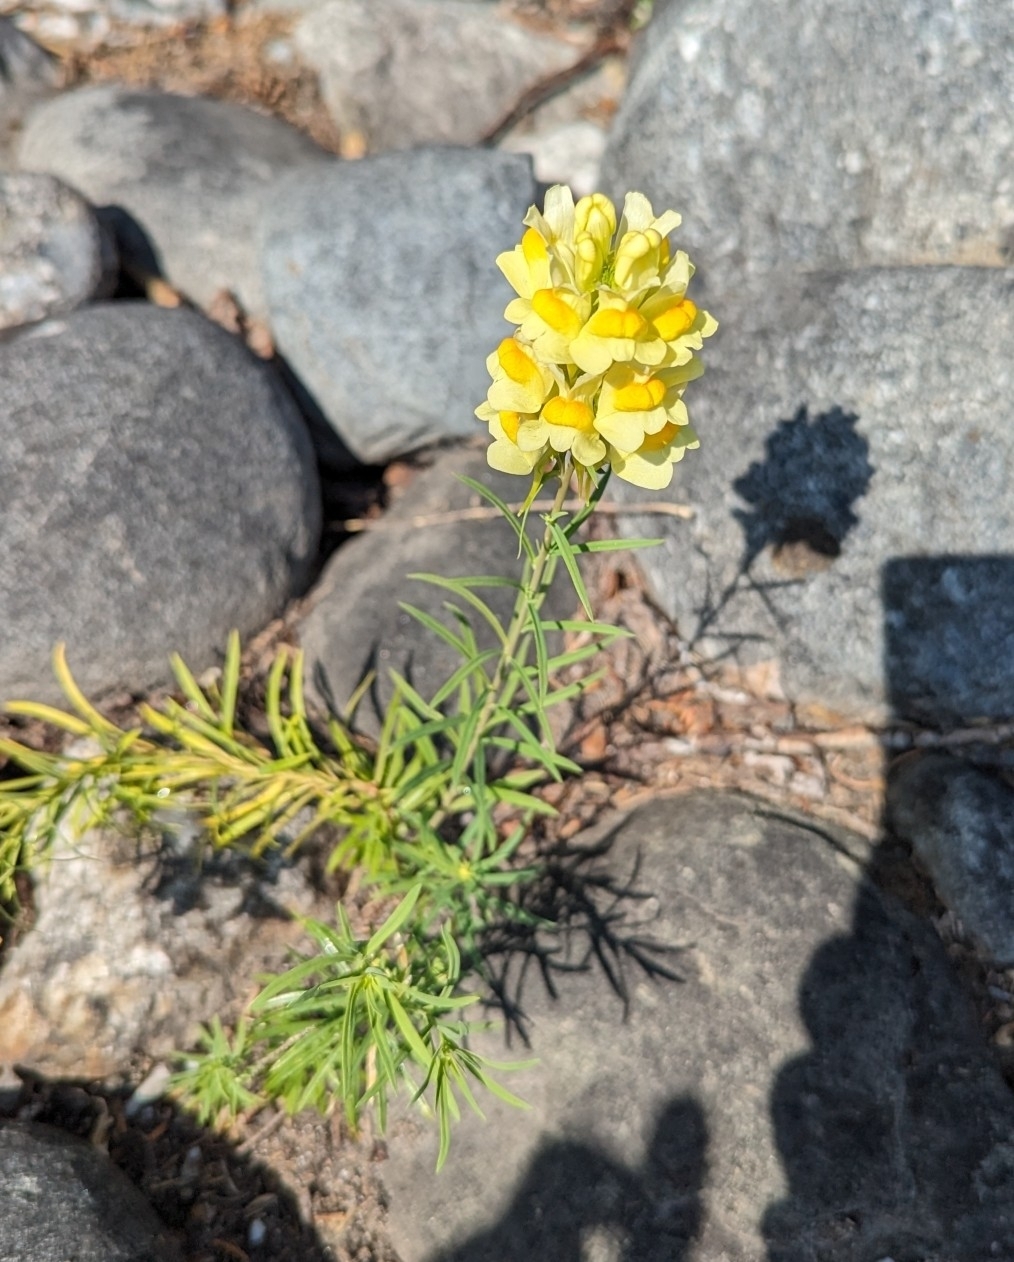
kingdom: Plantae
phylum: Tracheophyta
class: Magnoliopsida
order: Lamiales
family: Plantaginaceae
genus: Linaria
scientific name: Linaria vulgaris
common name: Butter and eggs
